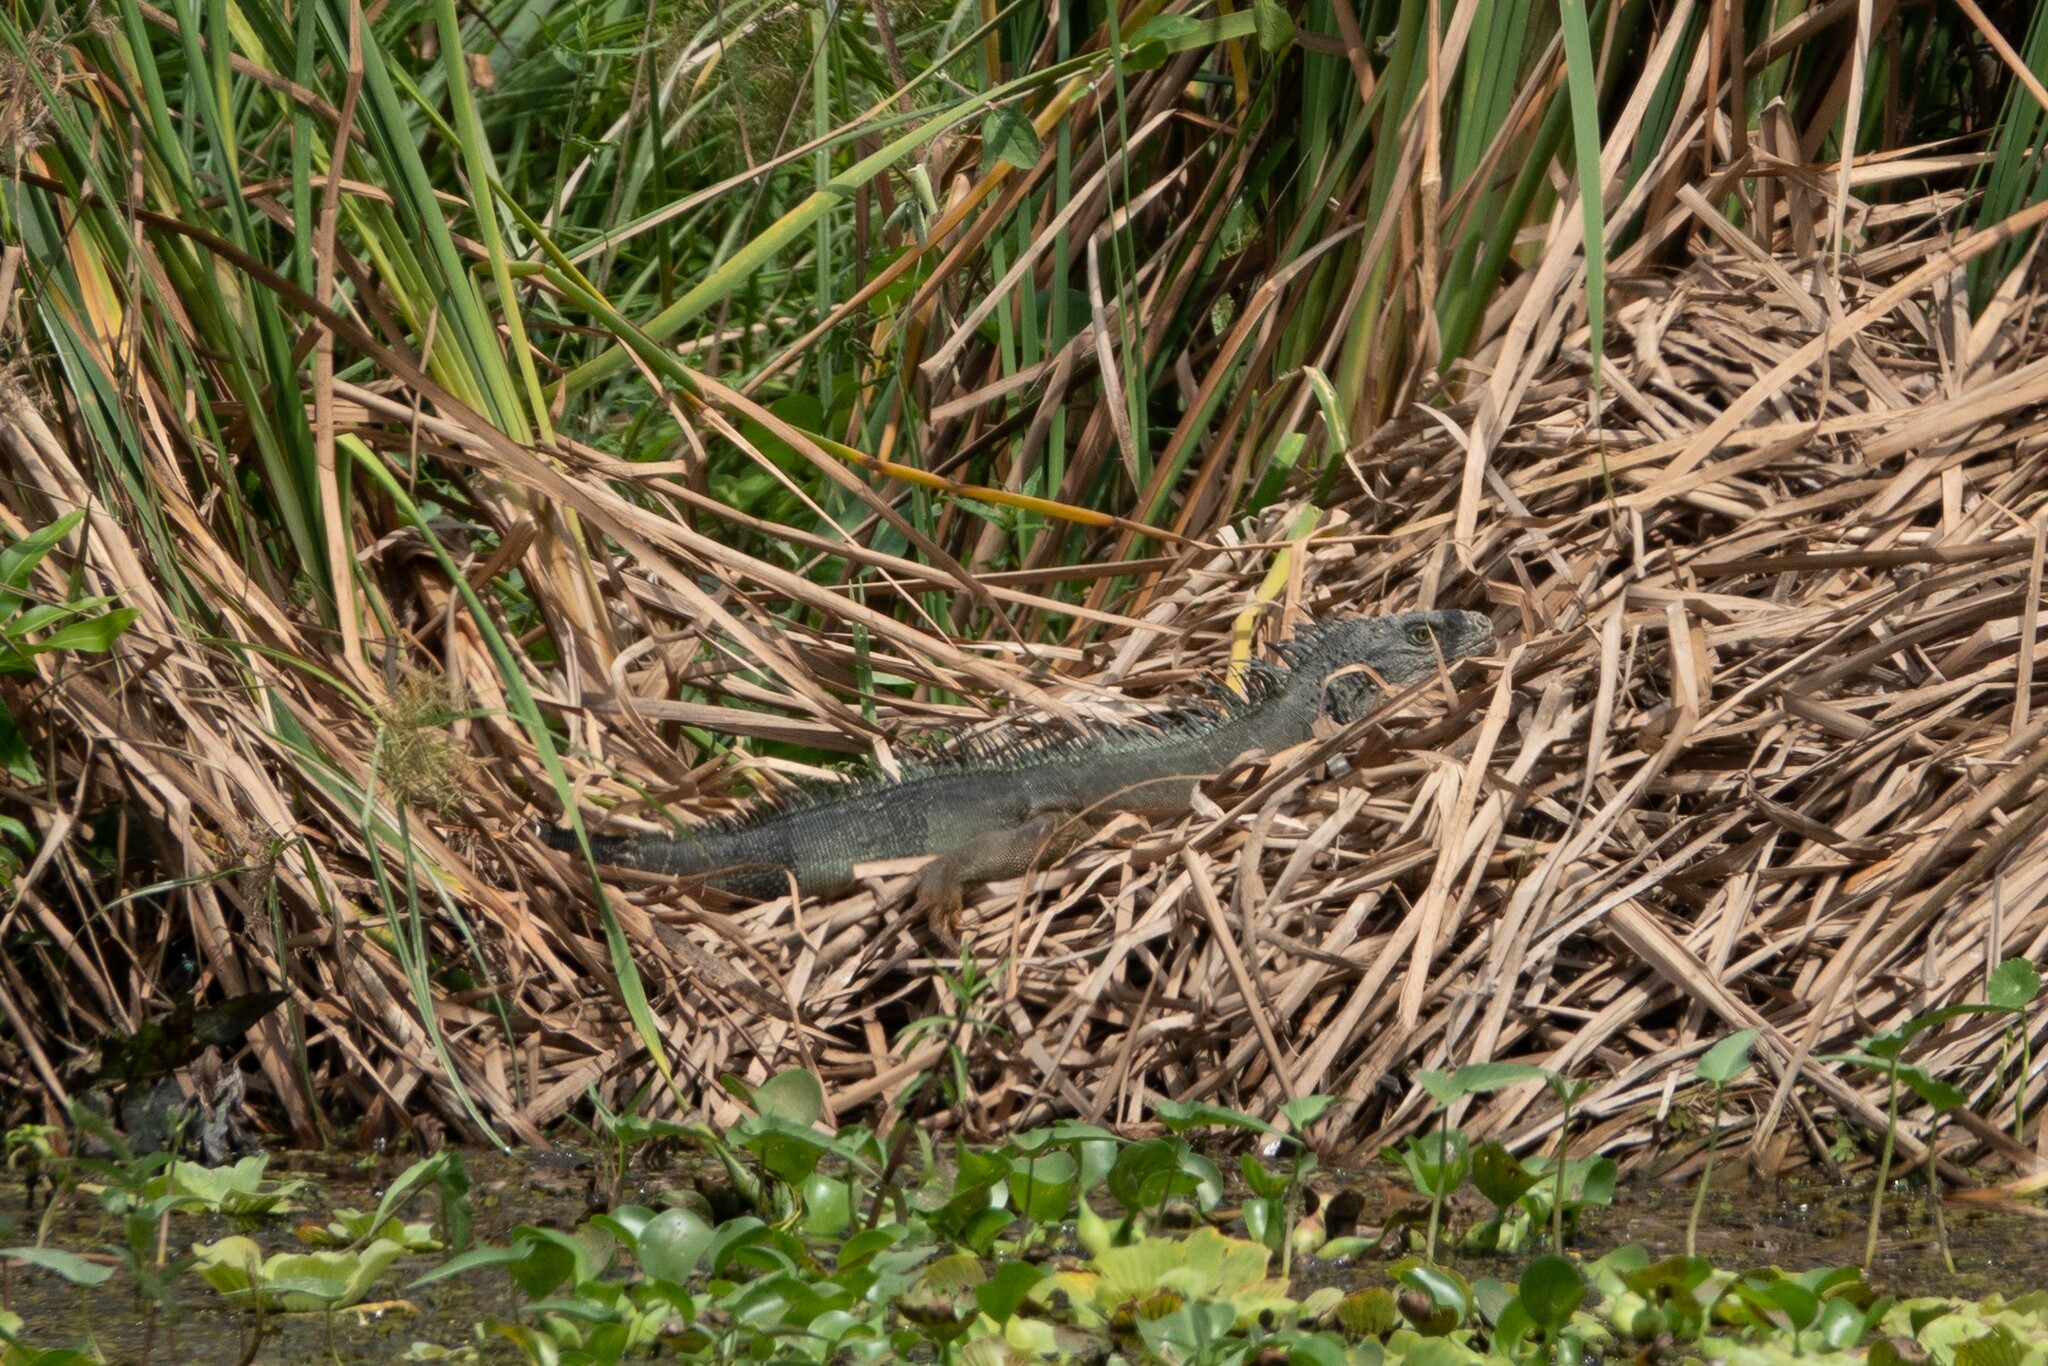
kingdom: Animalia
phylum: Chordata
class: Squamata
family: Iguanidae
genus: Iguana
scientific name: Iguana iguana
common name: Green iguana
